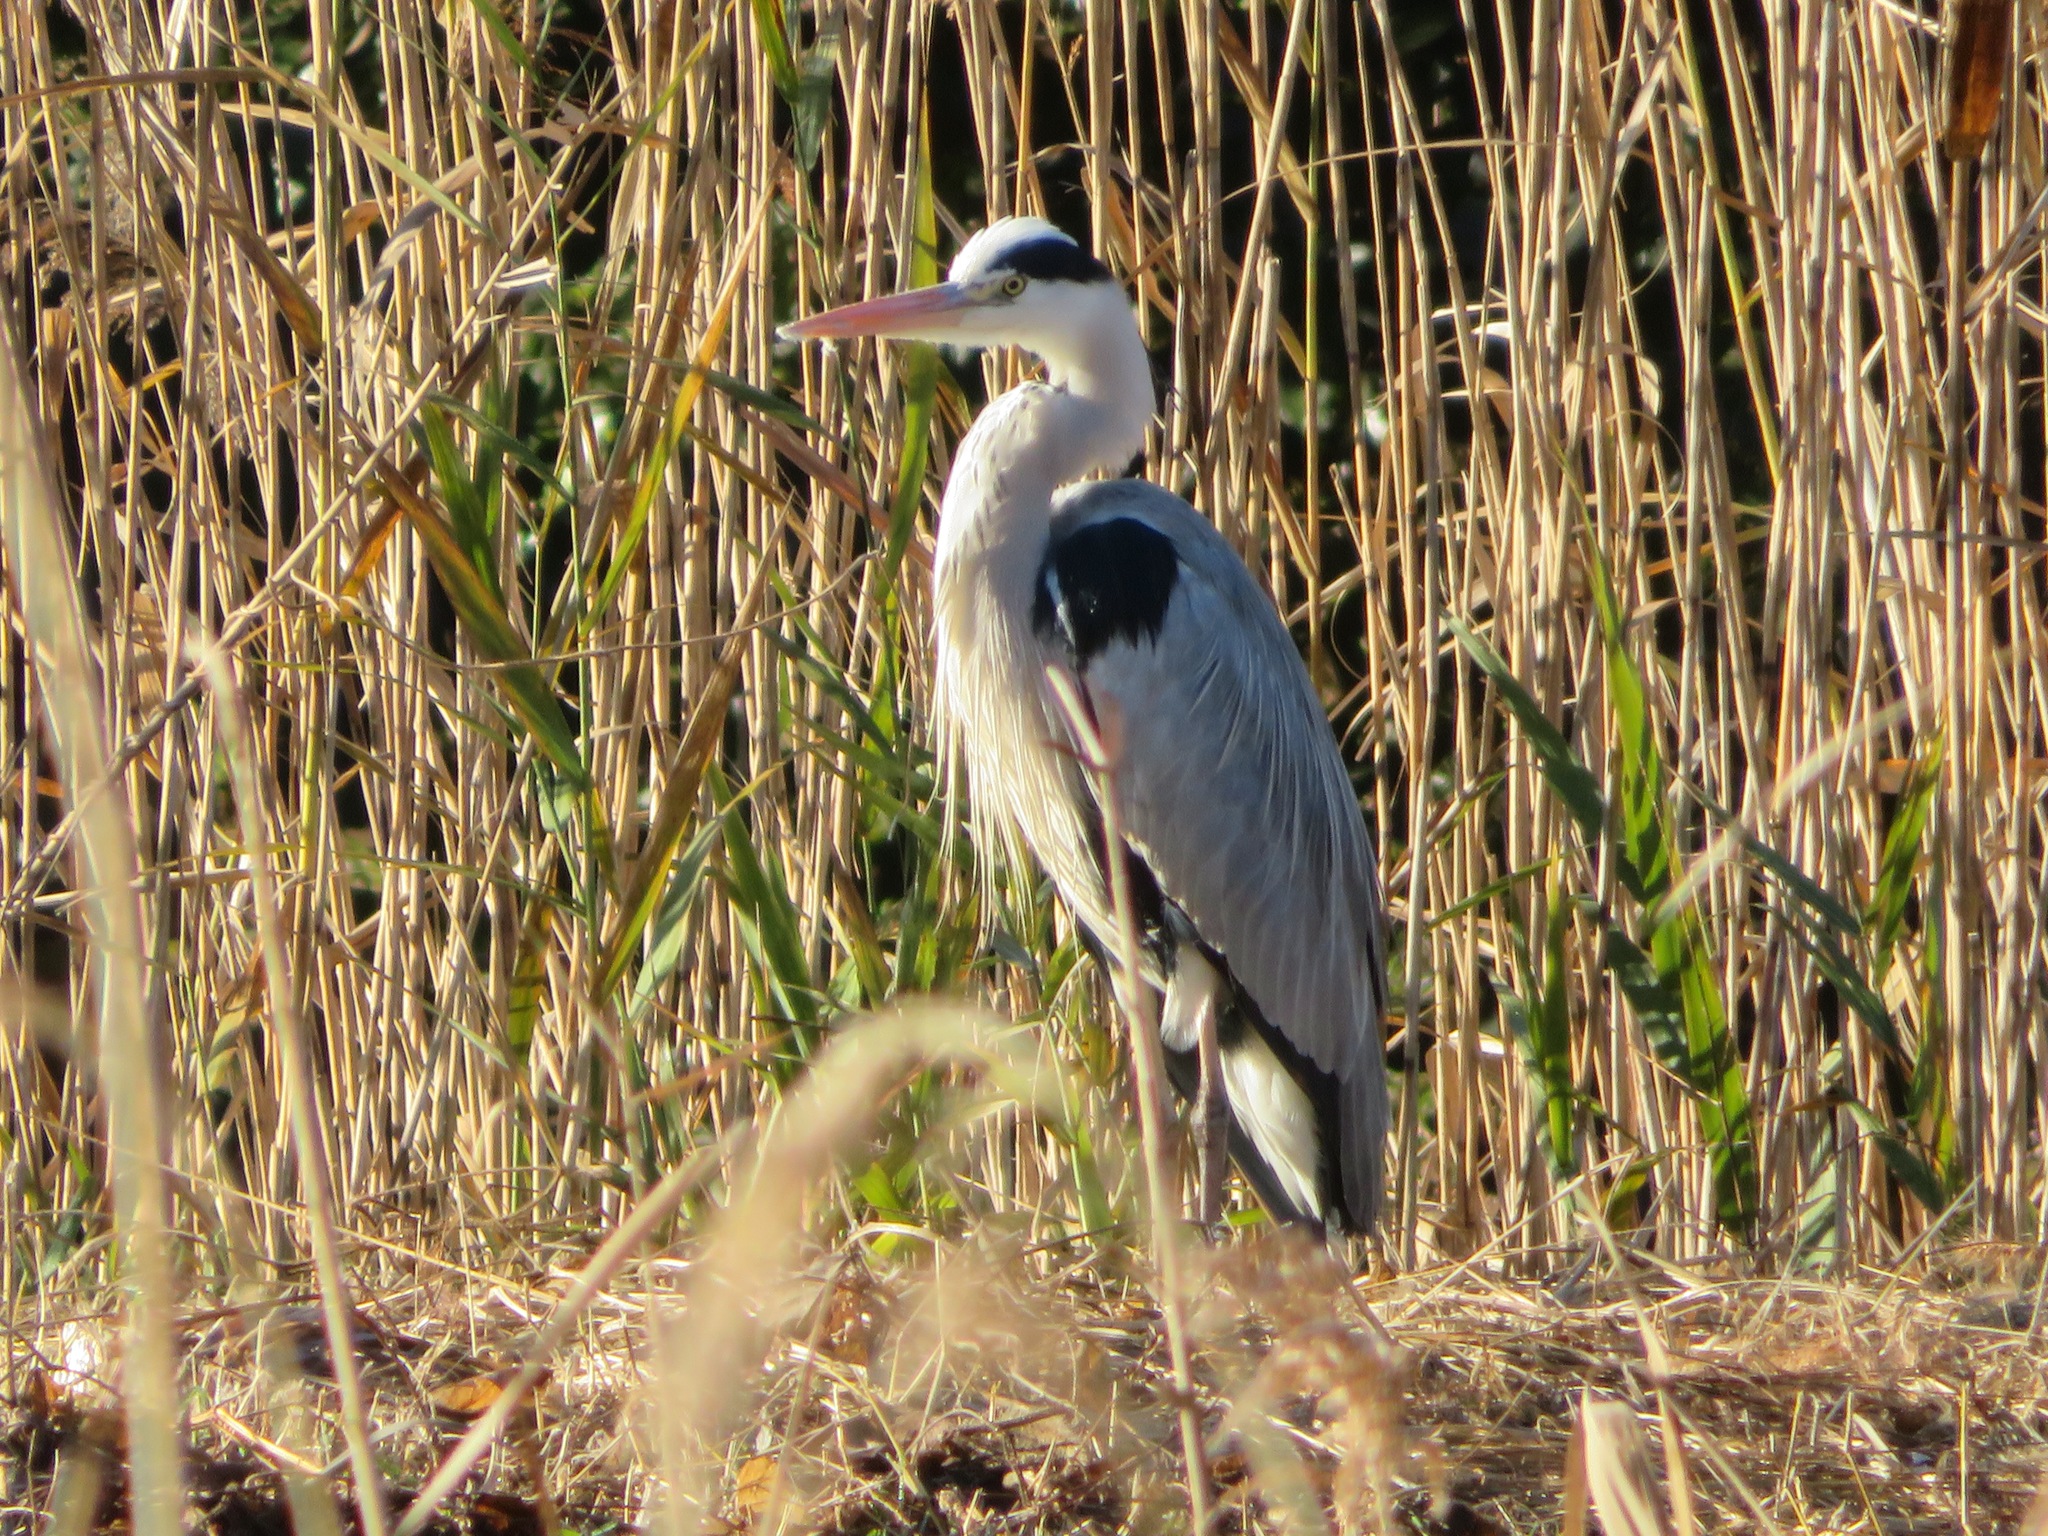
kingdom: Animalia
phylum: Chordata
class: Aves
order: Pelecaniformes
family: Ardeidae
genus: Ardea
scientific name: Ardea cinerea
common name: Grey heron
